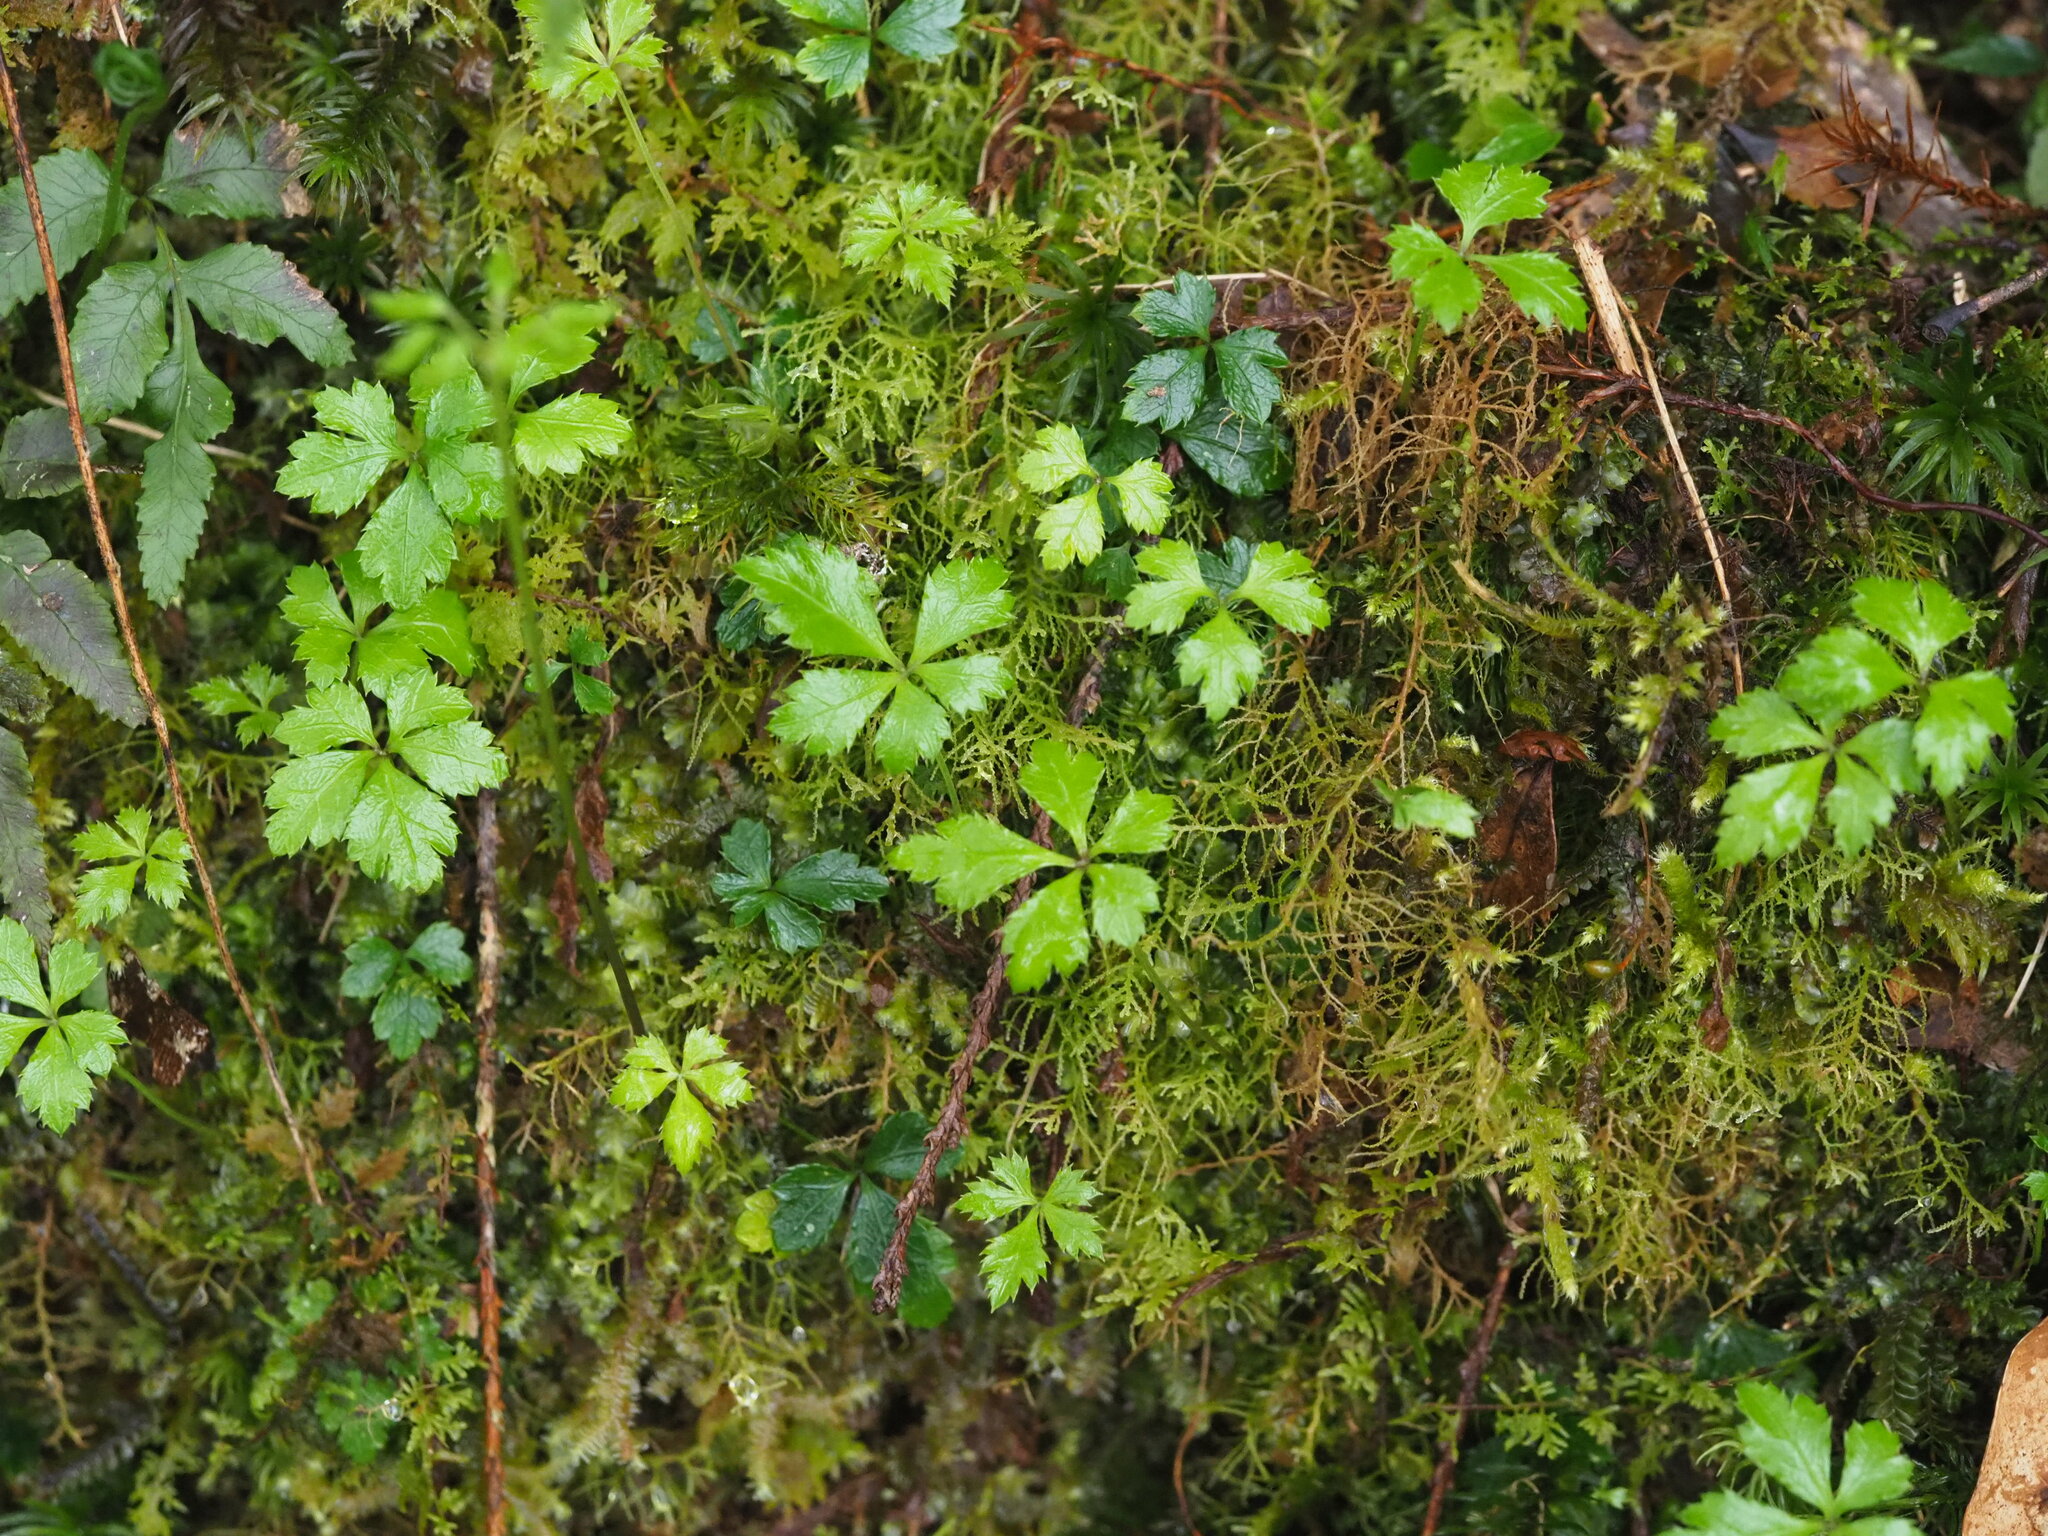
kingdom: Plantae
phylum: Tracheophyta
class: Magnoliopsida
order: Ranunculales
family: Ranunculaceae
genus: Coptis
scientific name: Coptis quinquefolia
